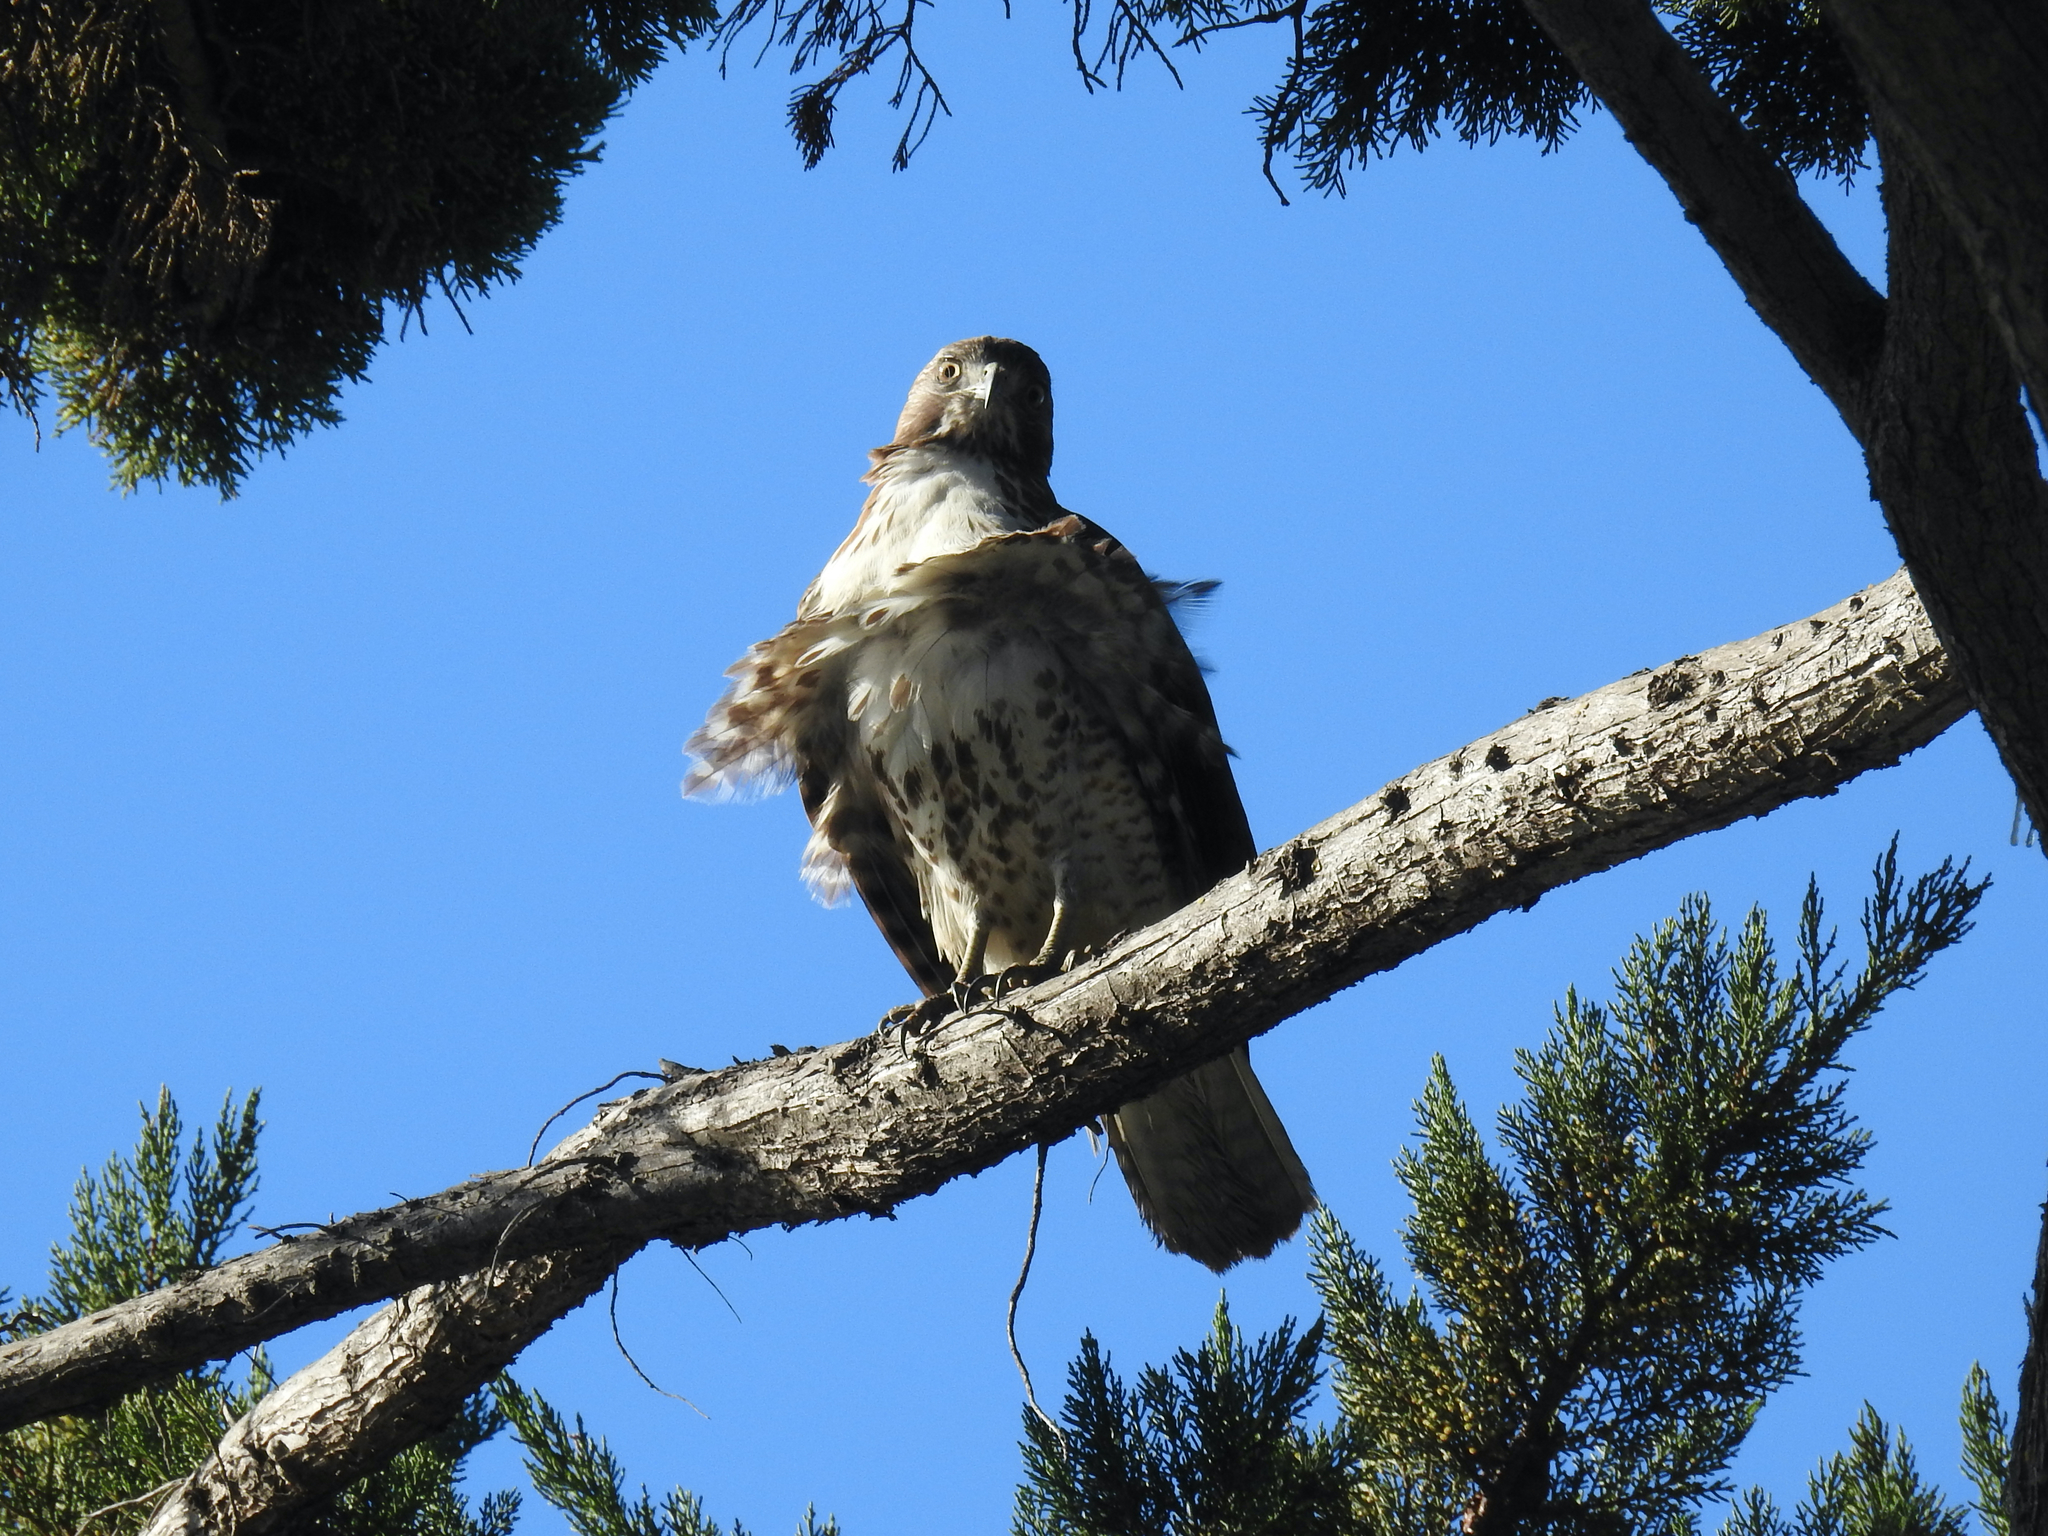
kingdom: Animalia
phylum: Chordata
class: Aves
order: Accipitriformes
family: Accipitridae
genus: Buteo
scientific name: Buteo jamaicensis
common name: Red-tailed hawk
